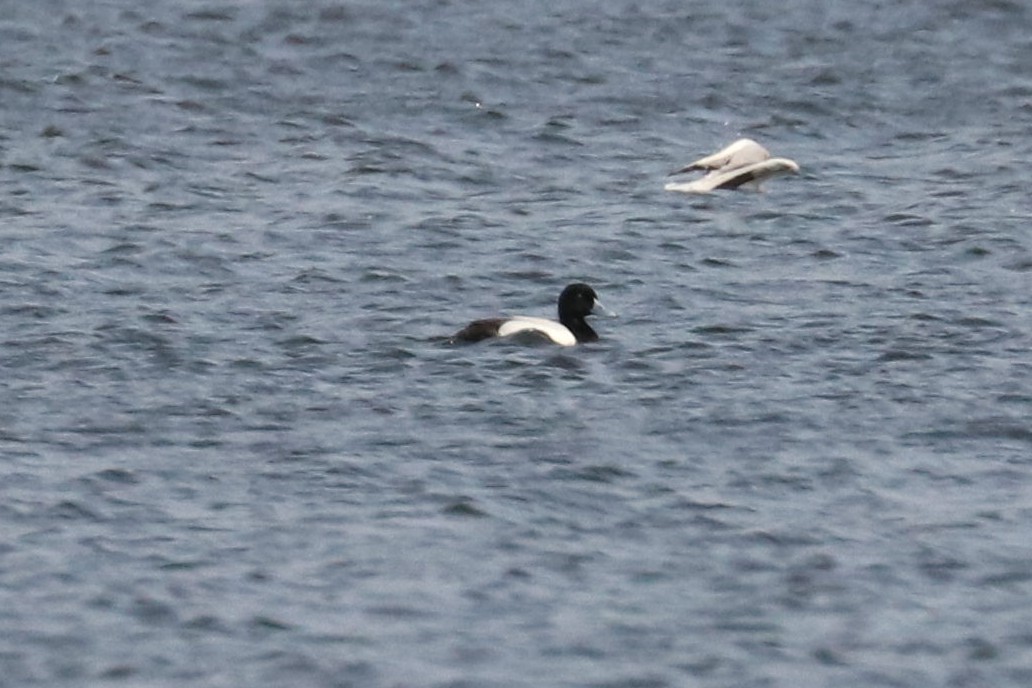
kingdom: Animalia
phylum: Chordata
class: Aves
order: Anseriformes
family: Anatidae
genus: Aythya
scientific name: Aythya marila
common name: Greater scaup
